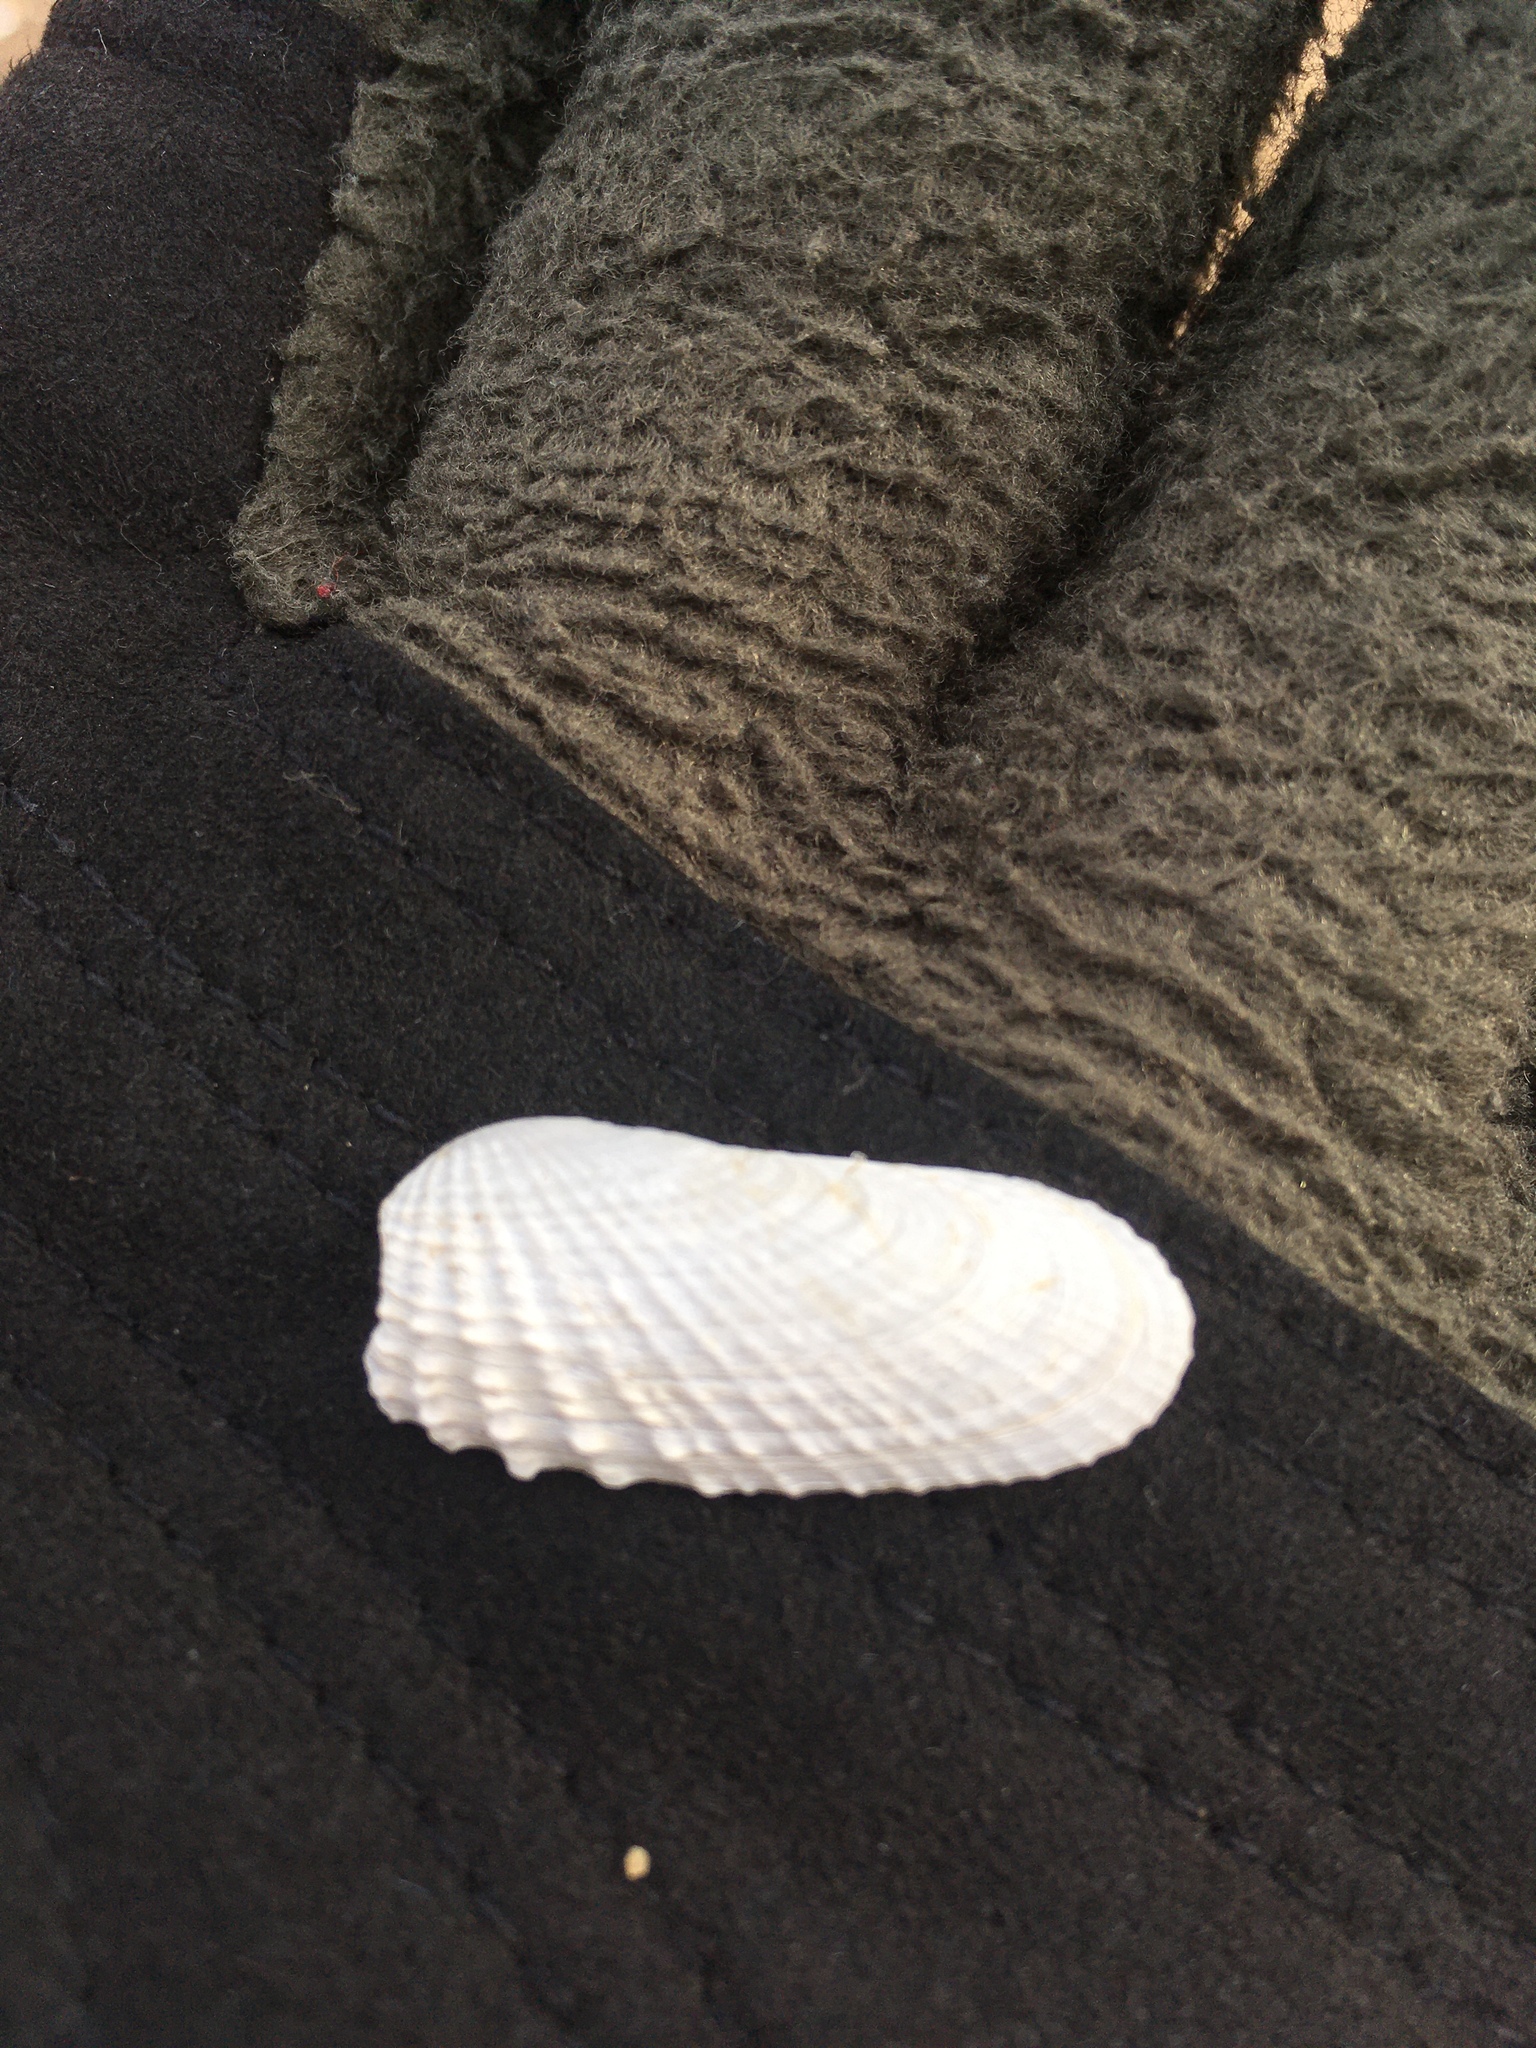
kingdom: Animalia
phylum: Mollusca
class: Bivalvia
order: Venerida
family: Veneridae
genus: Petricolaria
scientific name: Petricolaria pholadiformis
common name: American piddock
